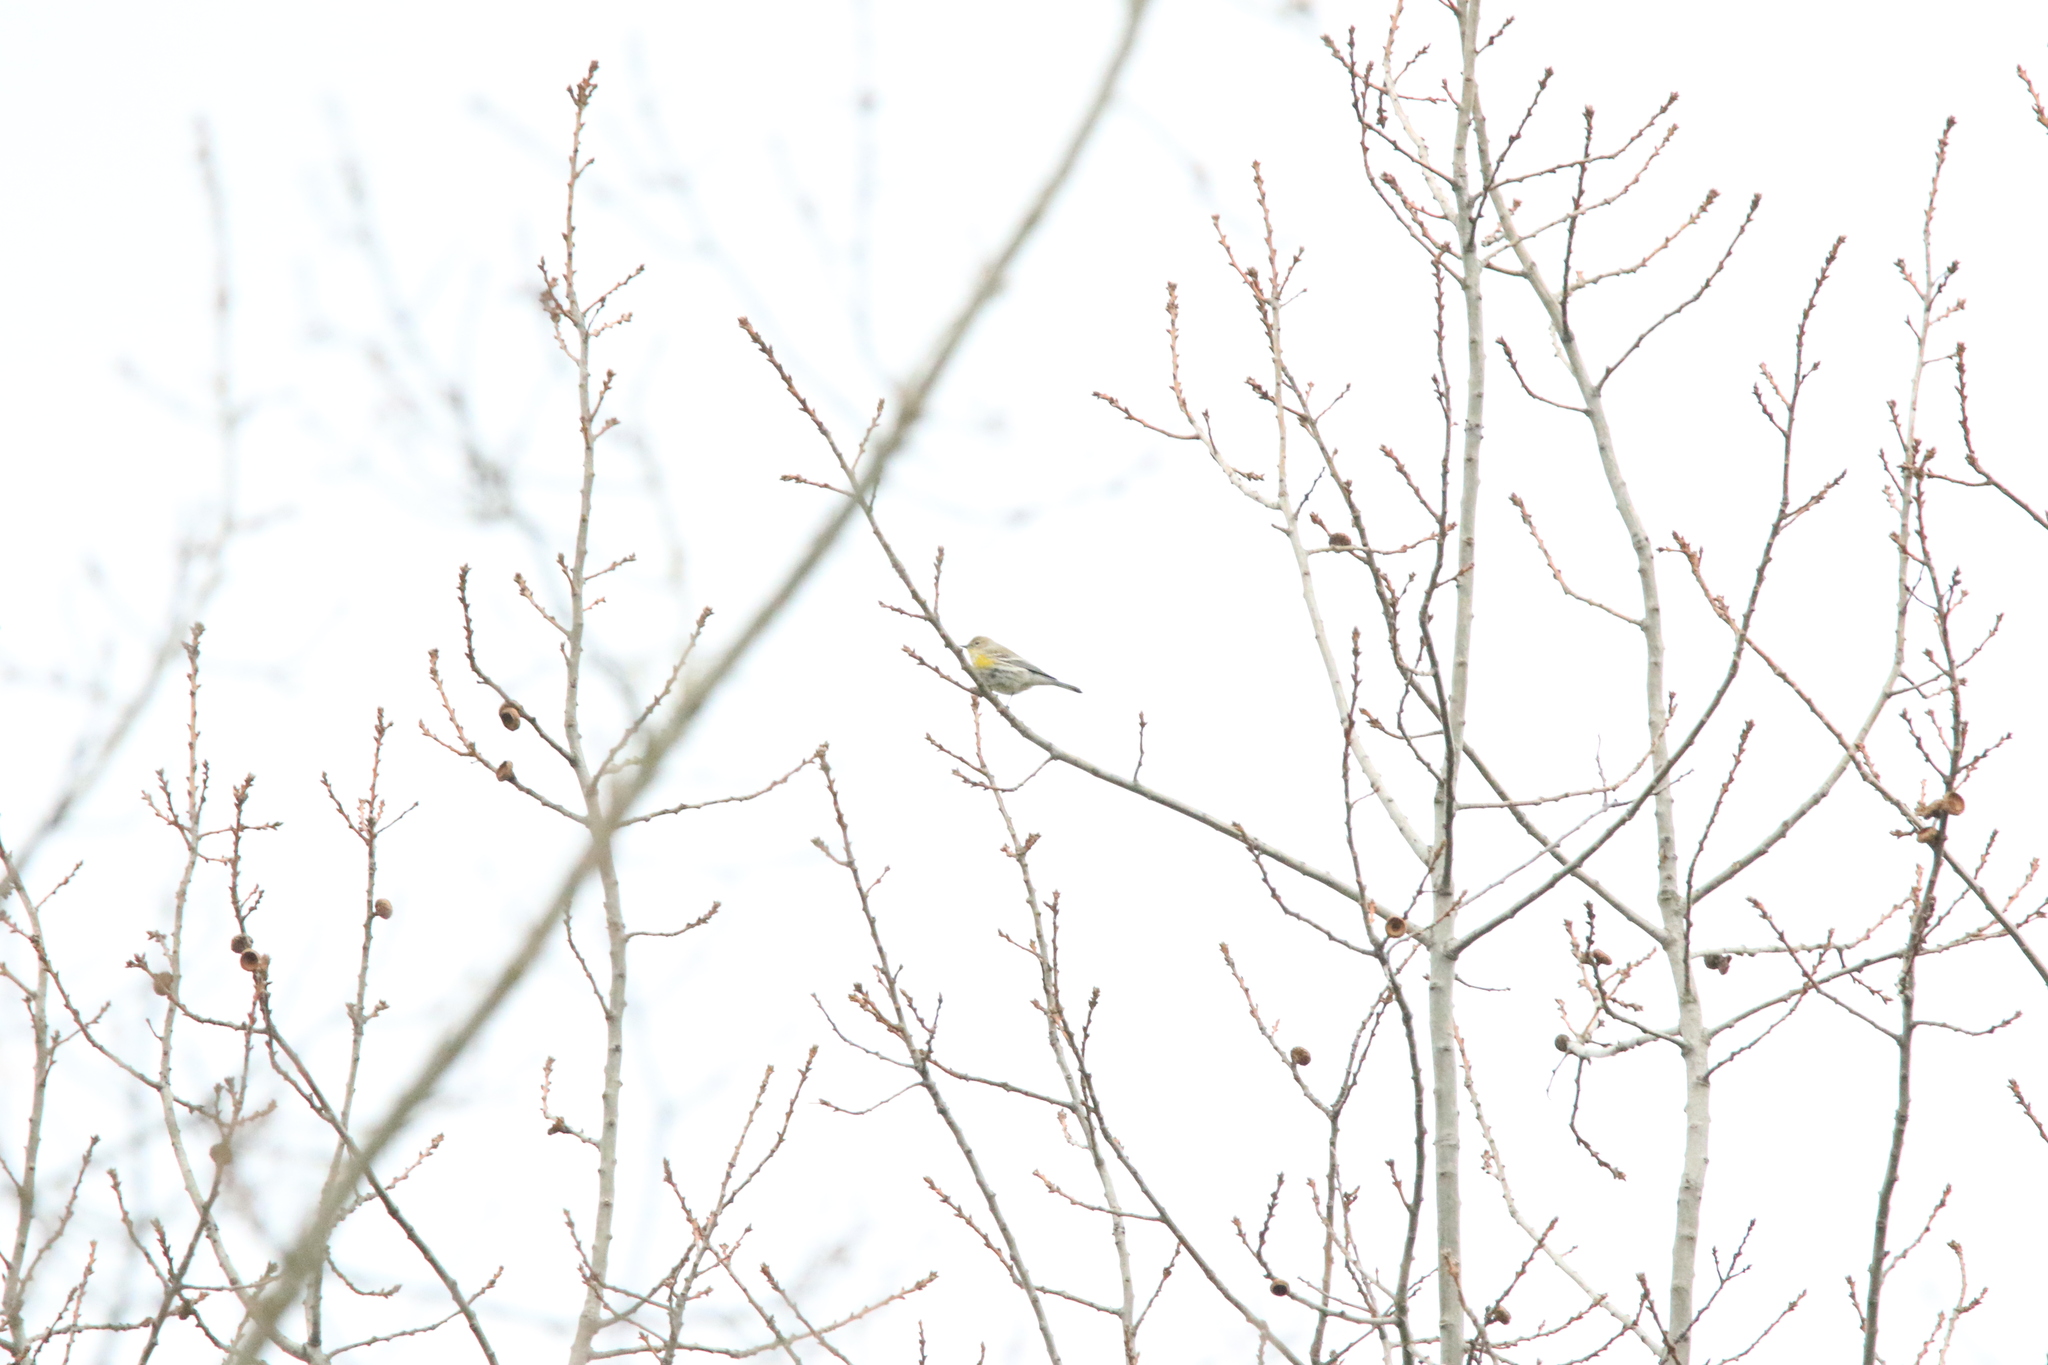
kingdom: Animalia
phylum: Chordata
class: Aves
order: Passeriformes
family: Parulidae
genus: Setophaga
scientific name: Setophaga coronata
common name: Myrtle warbler
